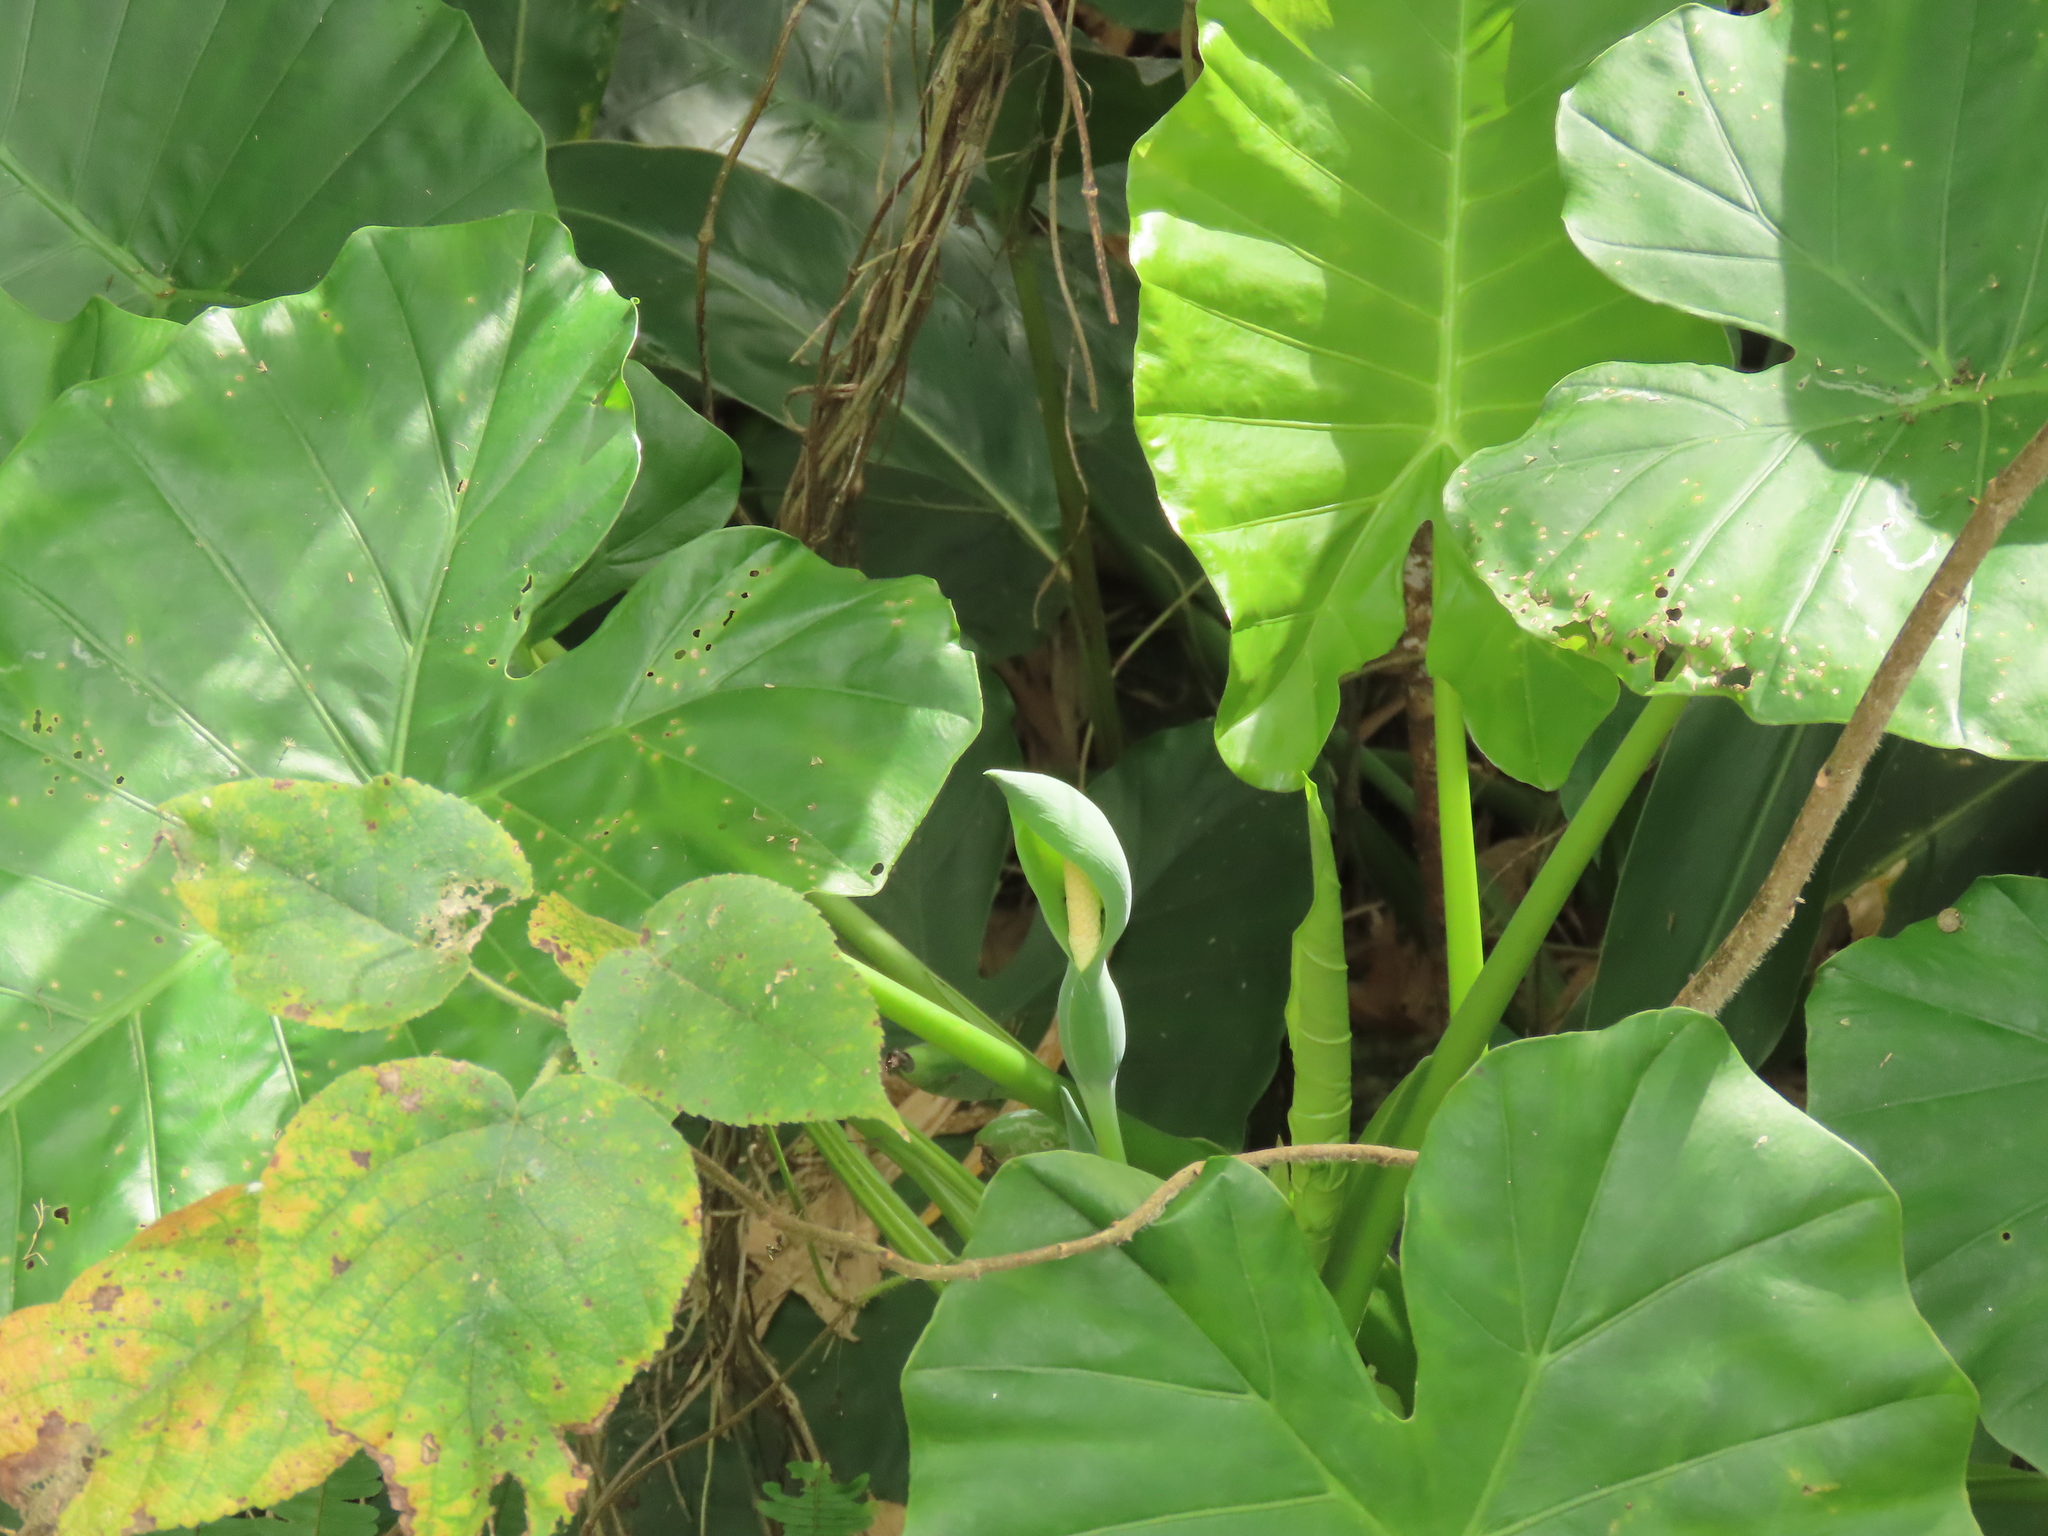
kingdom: Plantae
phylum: Tracheophyta
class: Liliopsida
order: Alismatales
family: Araceae
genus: Alocasia
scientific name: Alocasia odora
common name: Asian taro
